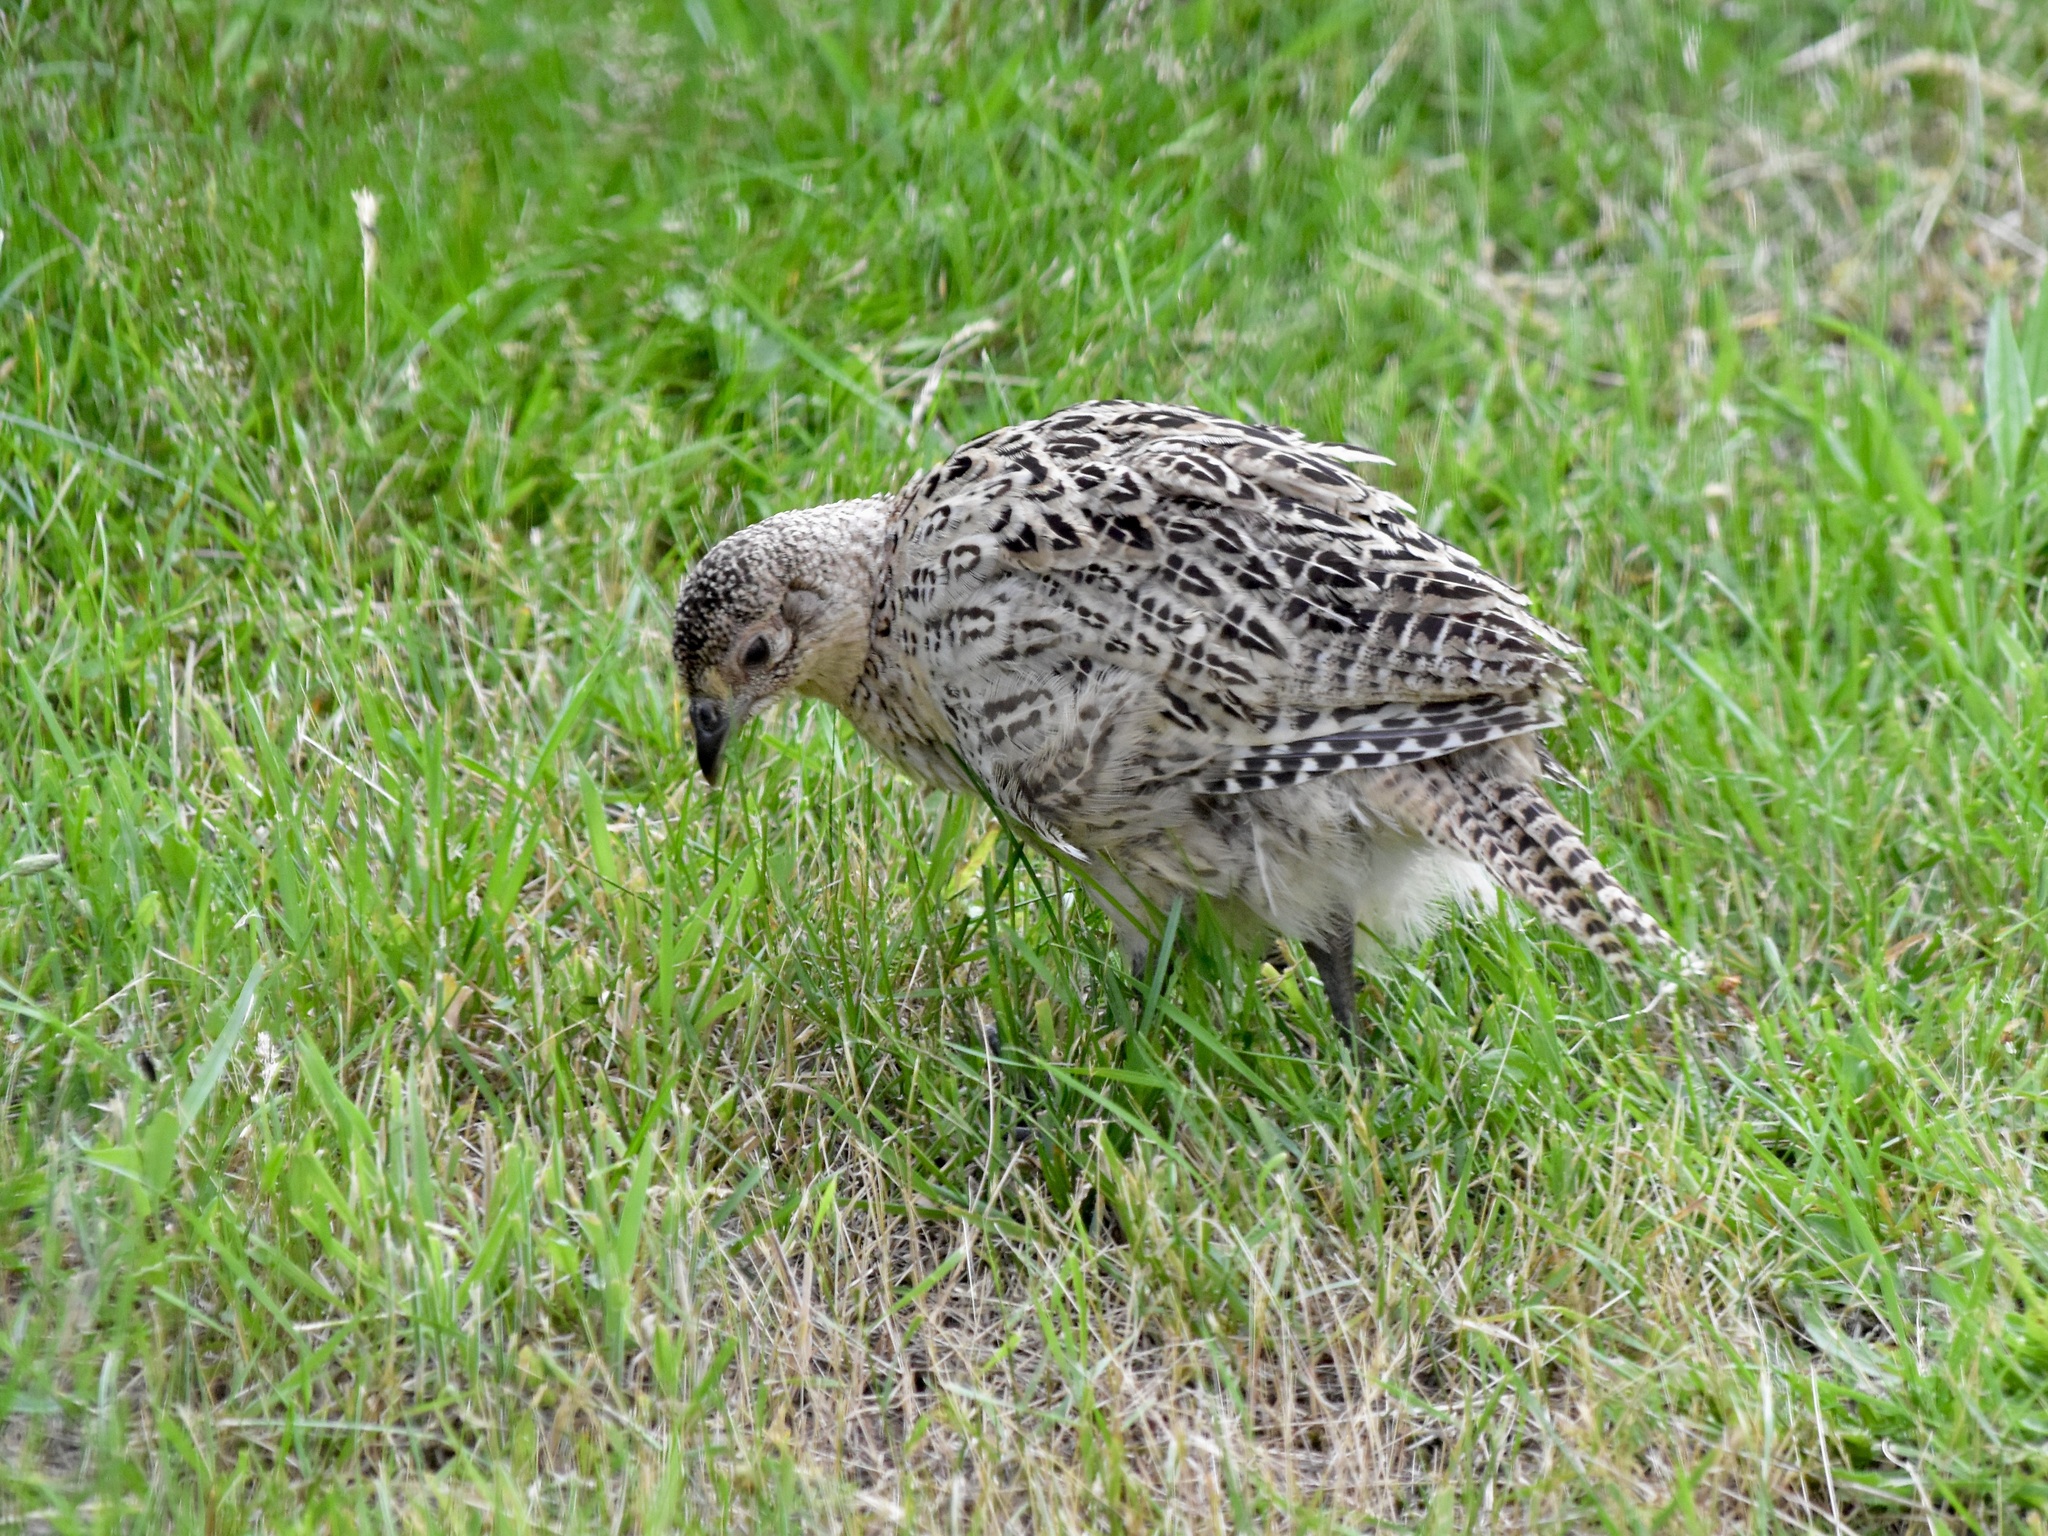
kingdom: Animalia
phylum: Chordata
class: Aves
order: Galliformes
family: Phasianidae
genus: Phasianus
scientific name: Phasianus colchicus
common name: Common pheasant
